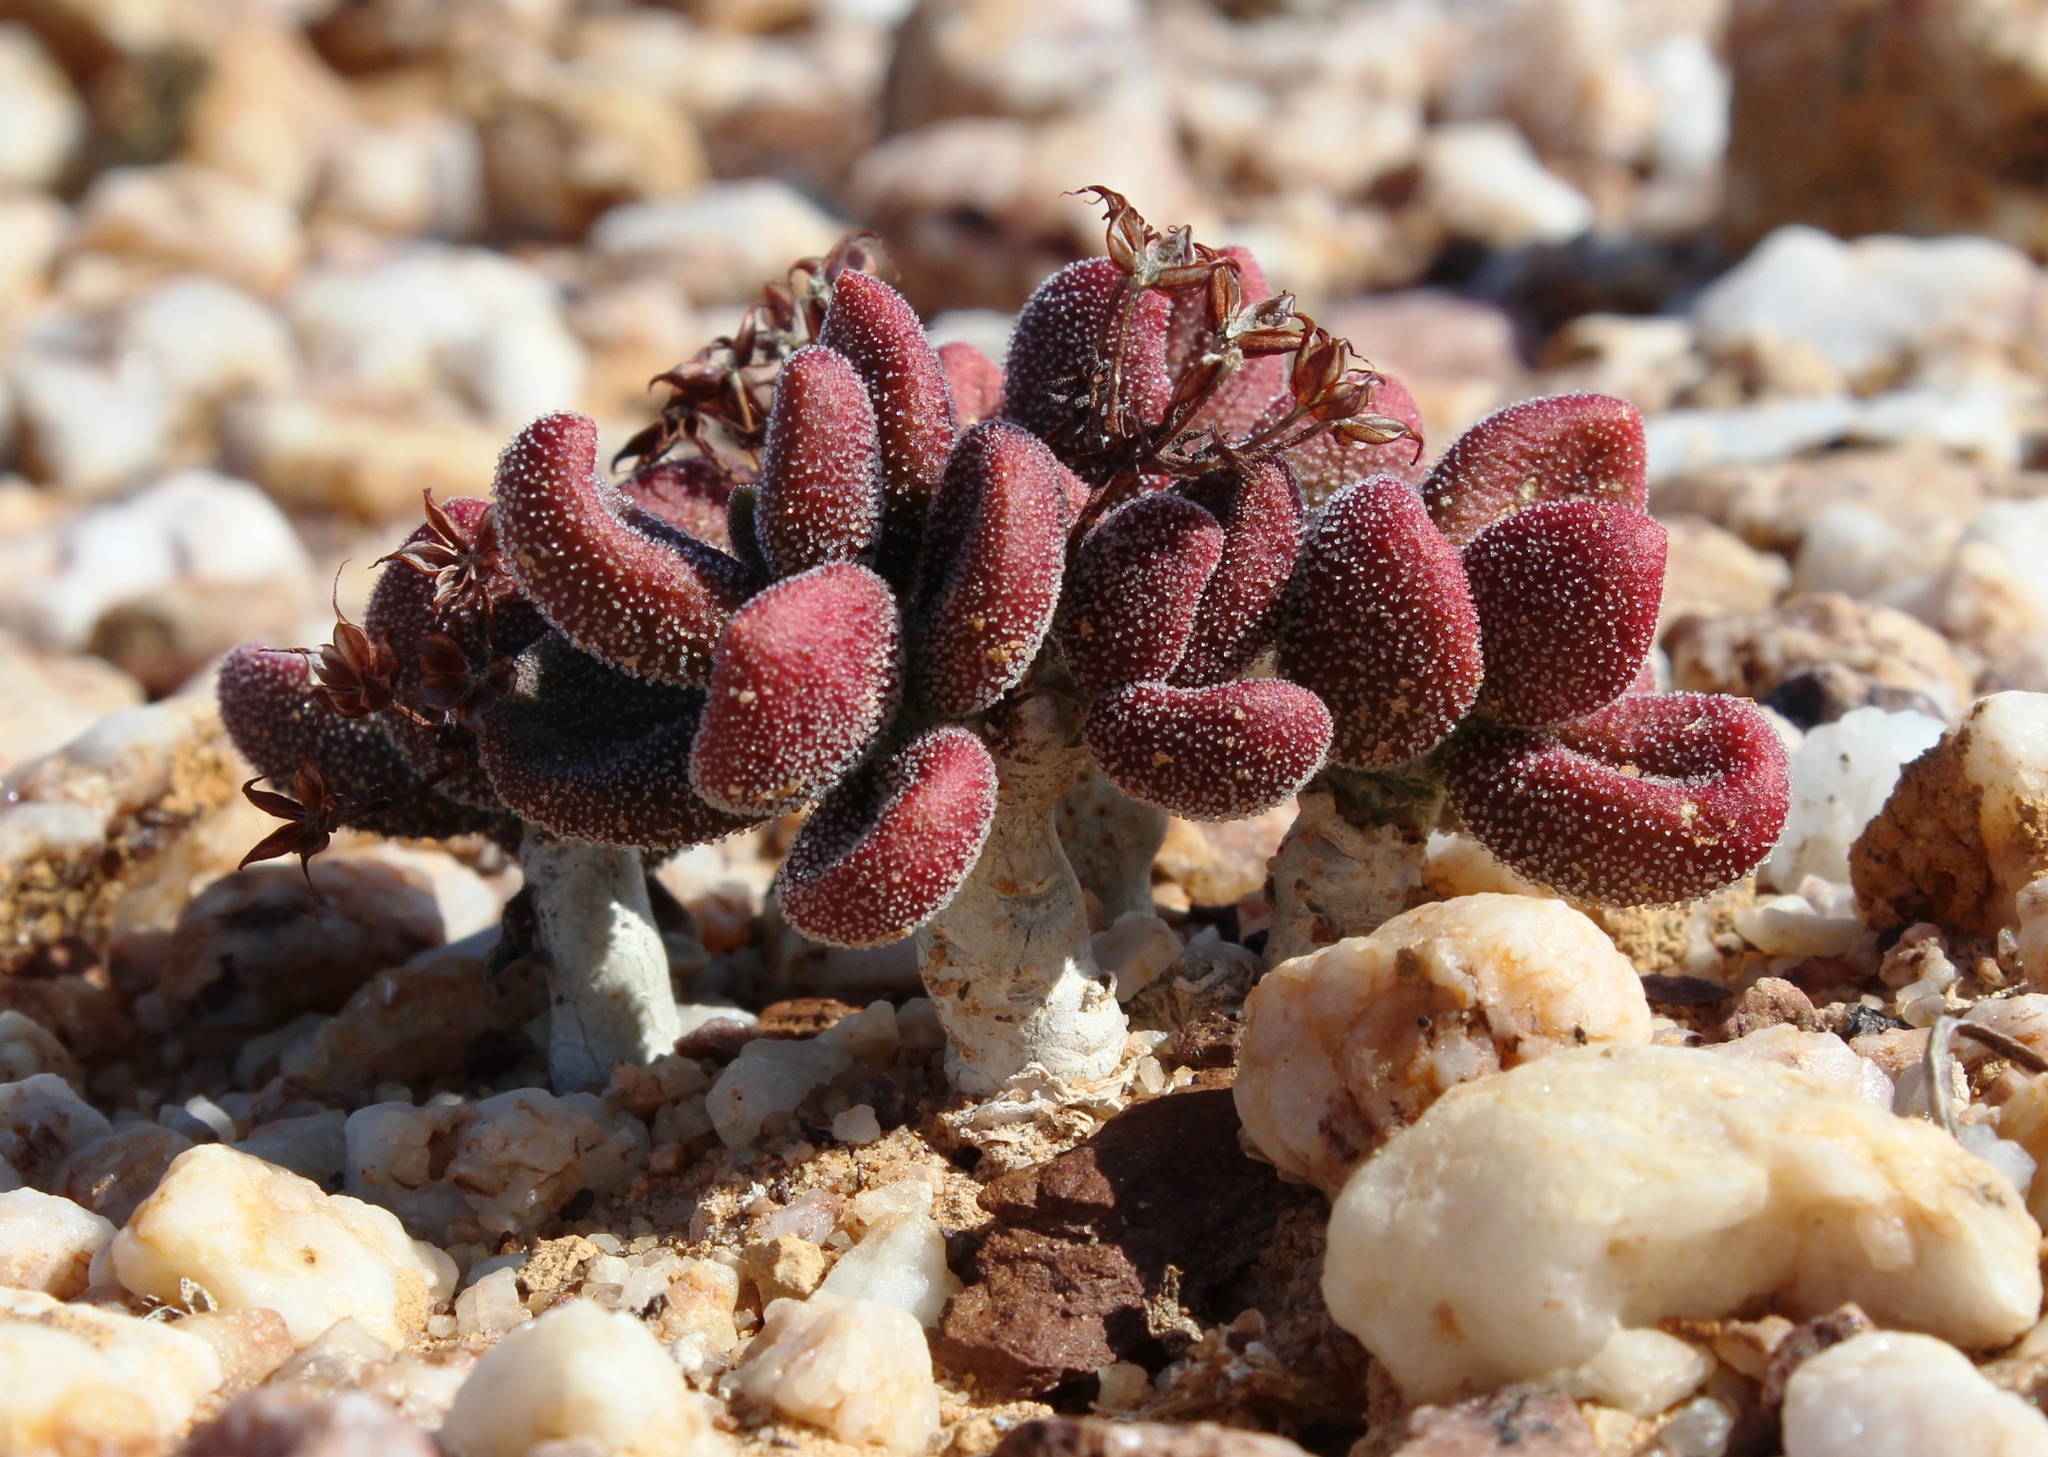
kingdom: Plantae
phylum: Tracheophyta
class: Magnoliopsida
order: Saxifragales
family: Crassulaceae
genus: Tylecodon
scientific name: Tylecodon pygmaeus
